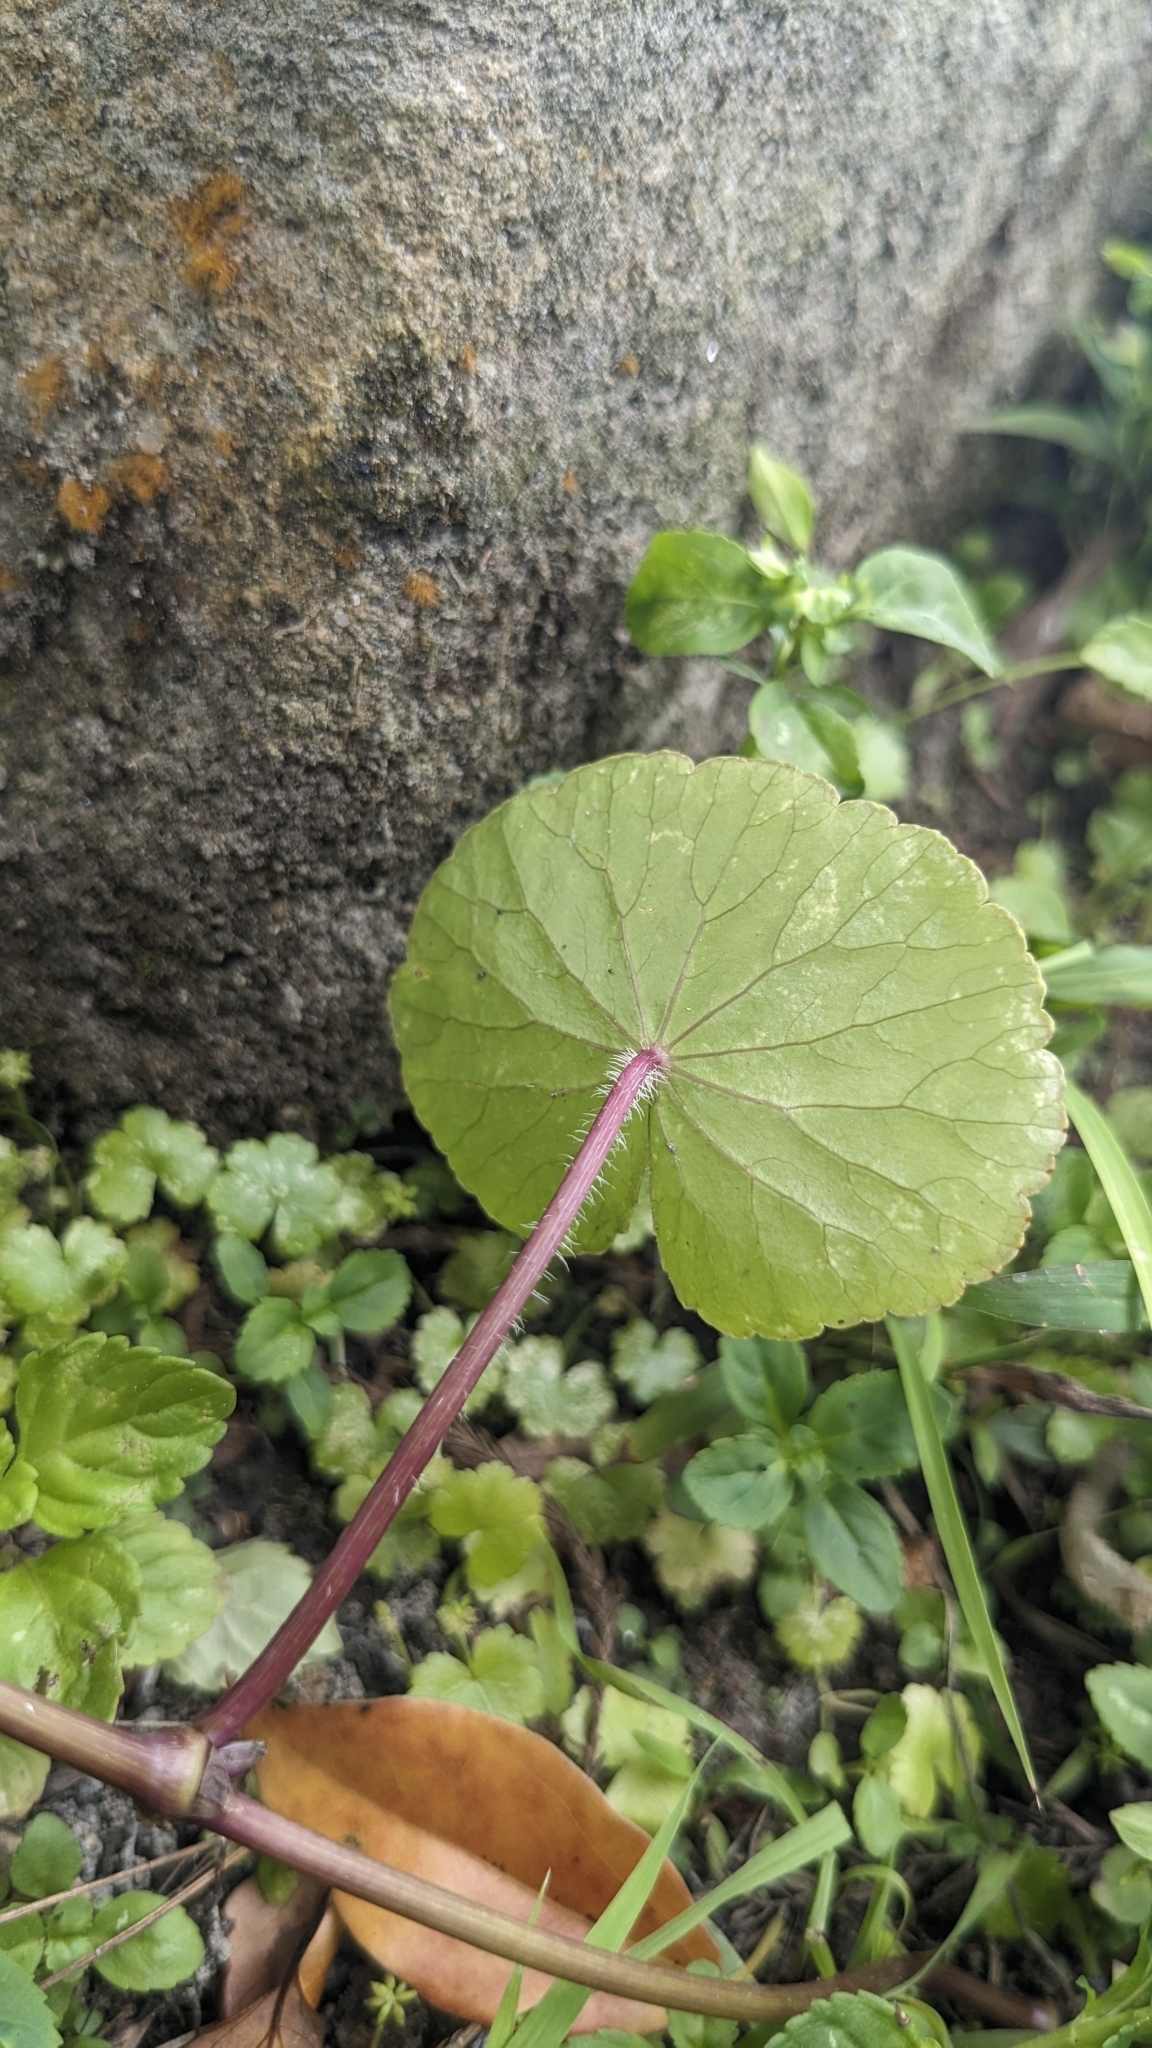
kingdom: Plantae
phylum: Tracheophyta
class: Magnoliopsida
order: Apiales
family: Araliaceae
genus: Hydrocotyle
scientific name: Hydrocotyle leucocephala
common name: Brazilian pennywort
